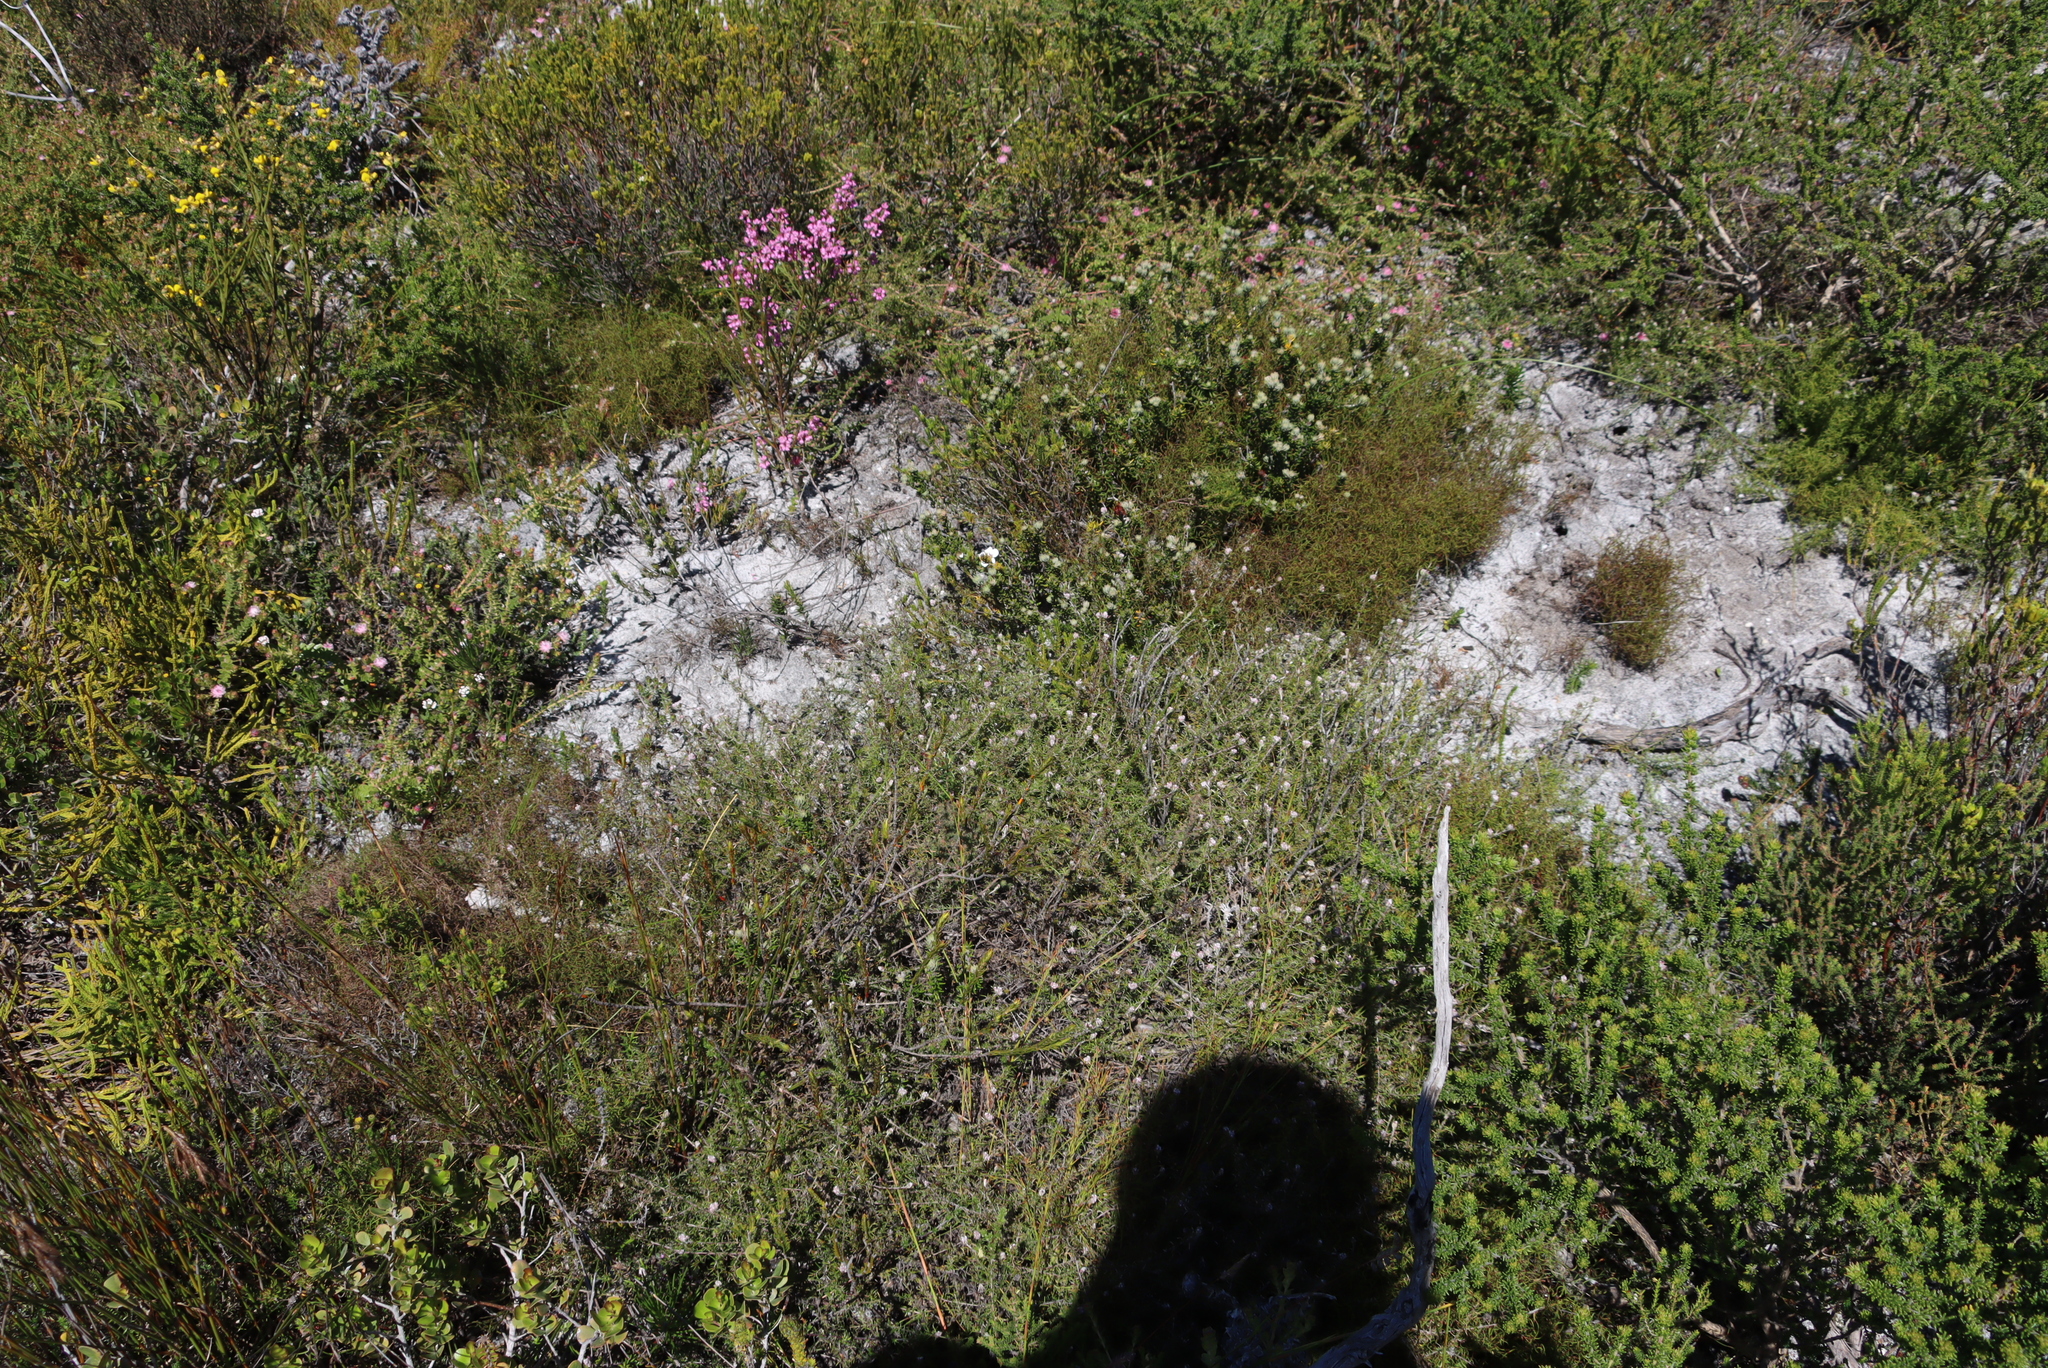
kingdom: Plantae
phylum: Tracheophyta
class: Magnoliopsida
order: Asterales
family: Asteraceae
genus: Metalasia
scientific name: Metalasia divergens
